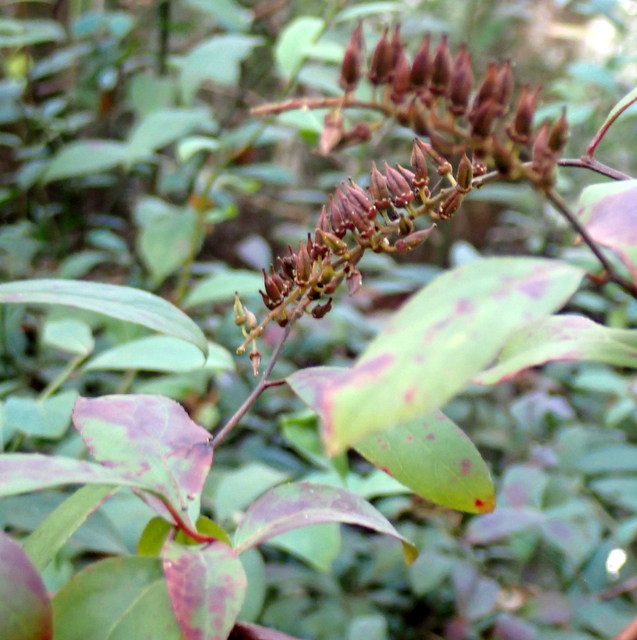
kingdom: Plantae
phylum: Tracheophyta
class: Magnoliopsida
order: Saxifragales
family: Iteaceae
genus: Itea
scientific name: Itea virginica
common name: Sweetspire
